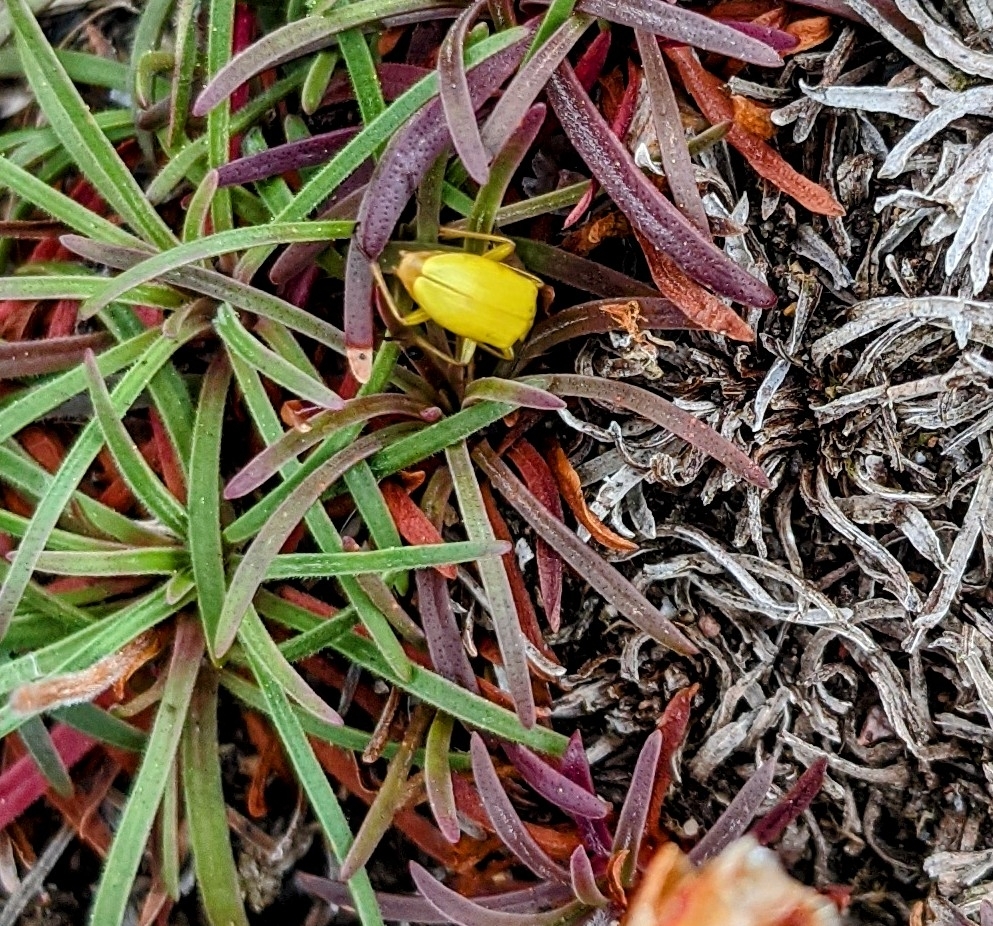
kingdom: Animalia
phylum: Arthropoda
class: Insecta
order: Coleoptera
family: Tenebrionidae
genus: Cteniopus
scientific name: Cteniopus sulphureus
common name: Sulphur beetle
